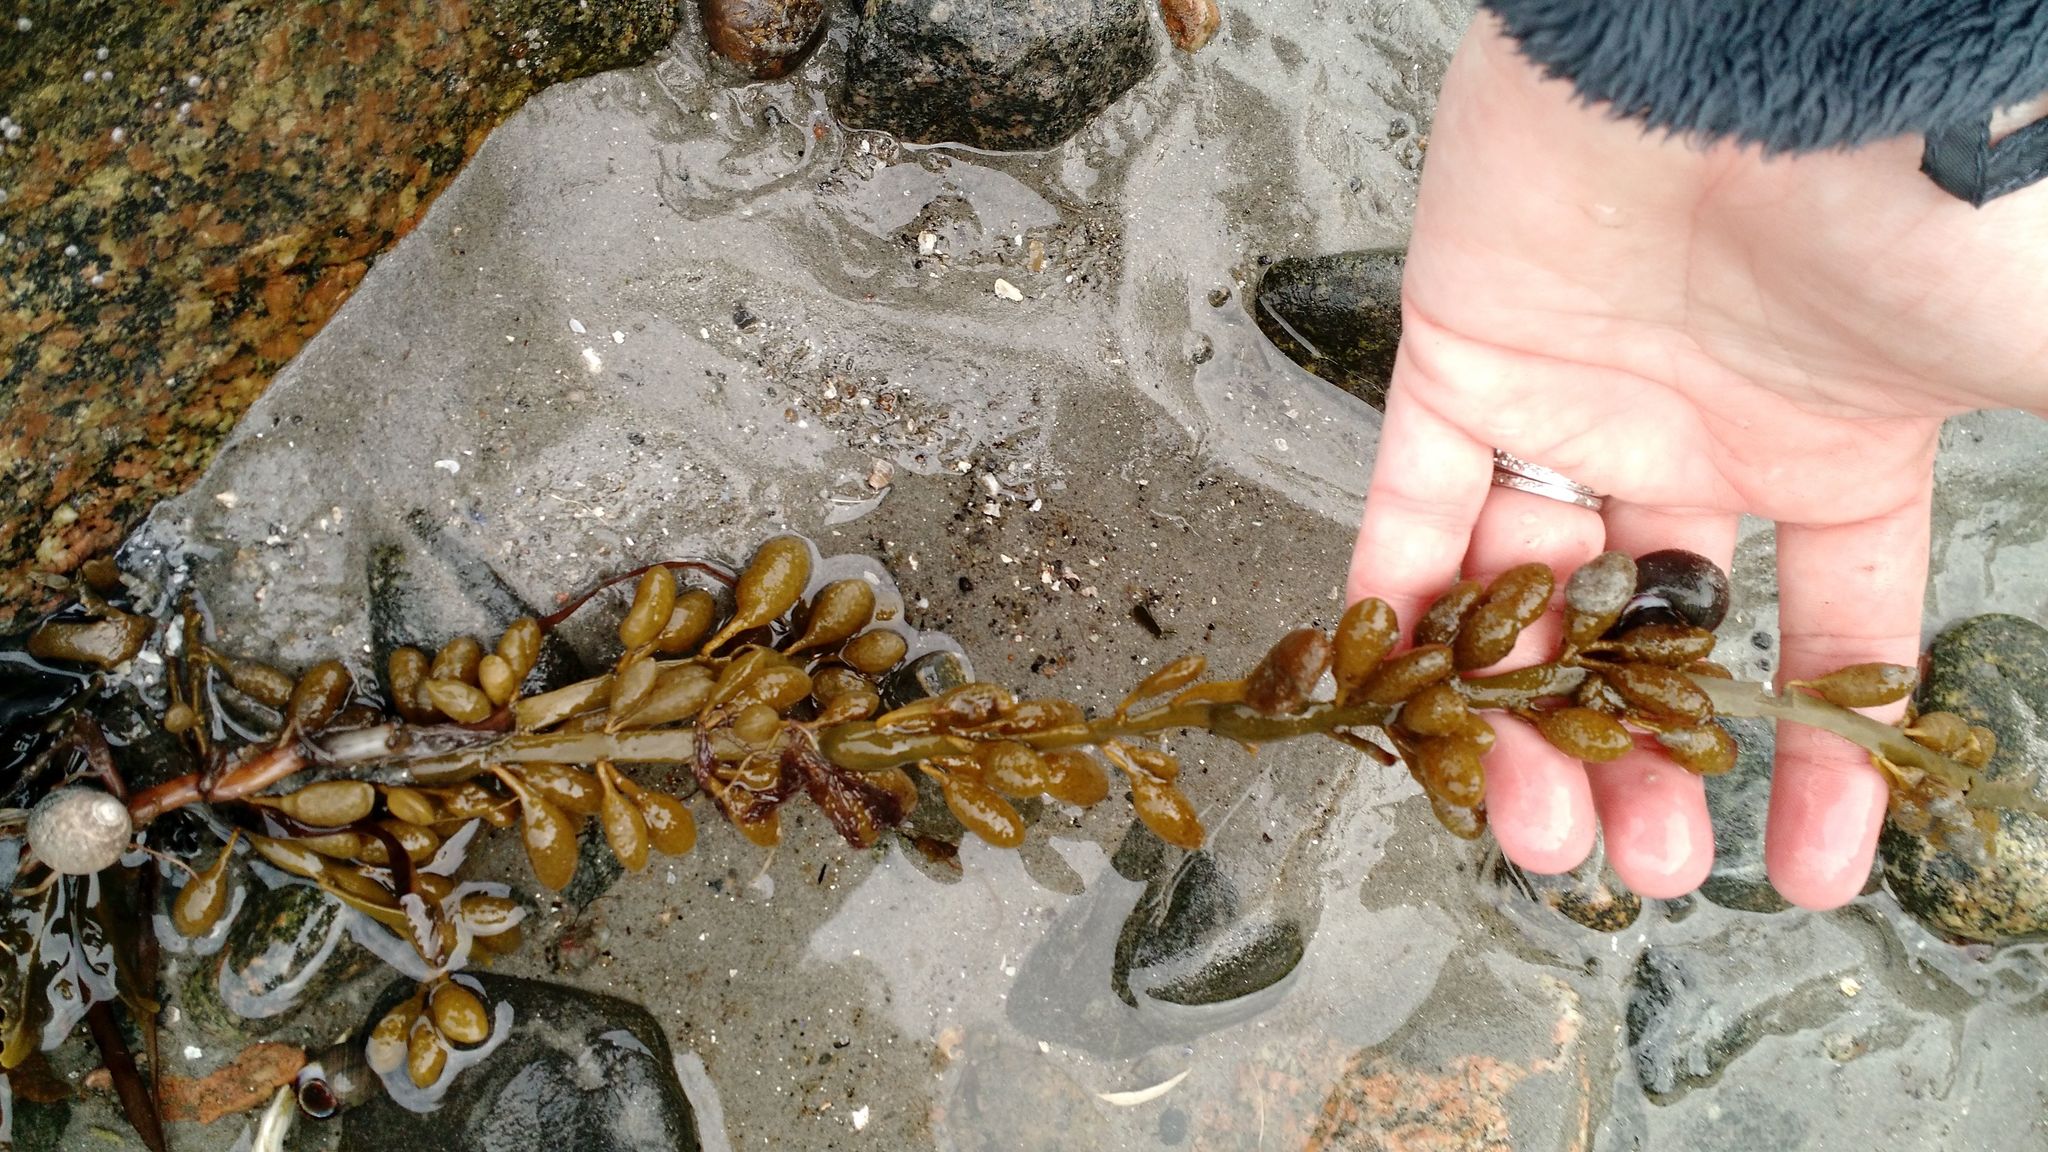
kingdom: Chromista
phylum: Ochrophyta
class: Phaeophyceae
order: Fucales
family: Fucaceae
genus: Ascophyllum
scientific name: Ascophyllum nodosum
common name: Knotted wrack
